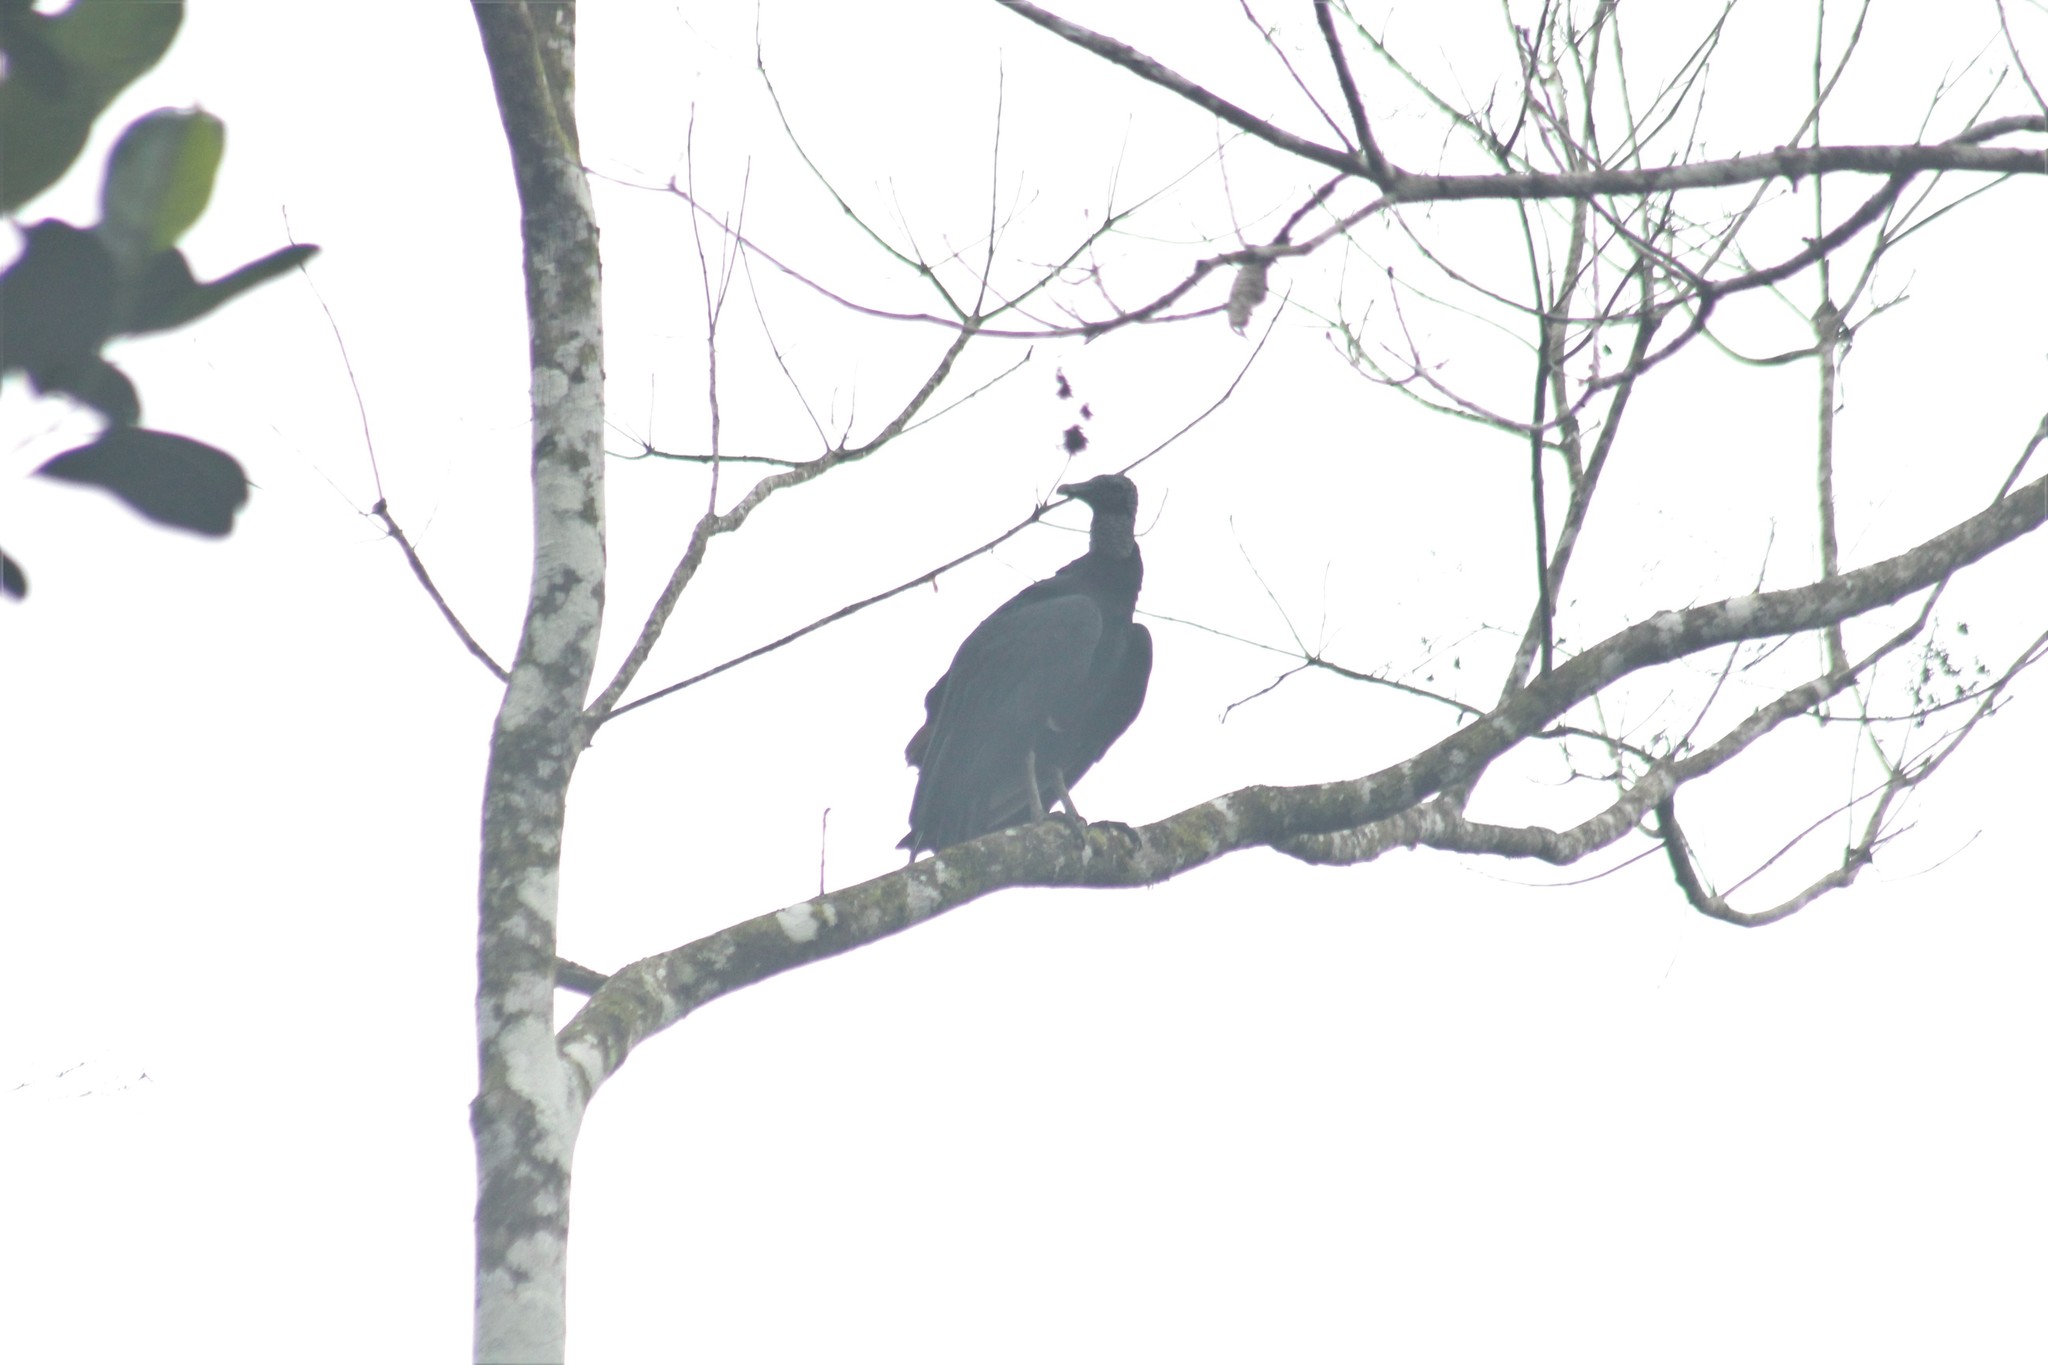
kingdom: Animalia
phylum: Chordata
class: Aves
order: Accipitriformes
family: Cathartidae
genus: Coragyps
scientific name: Coragyps atratus
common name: Black vulture
